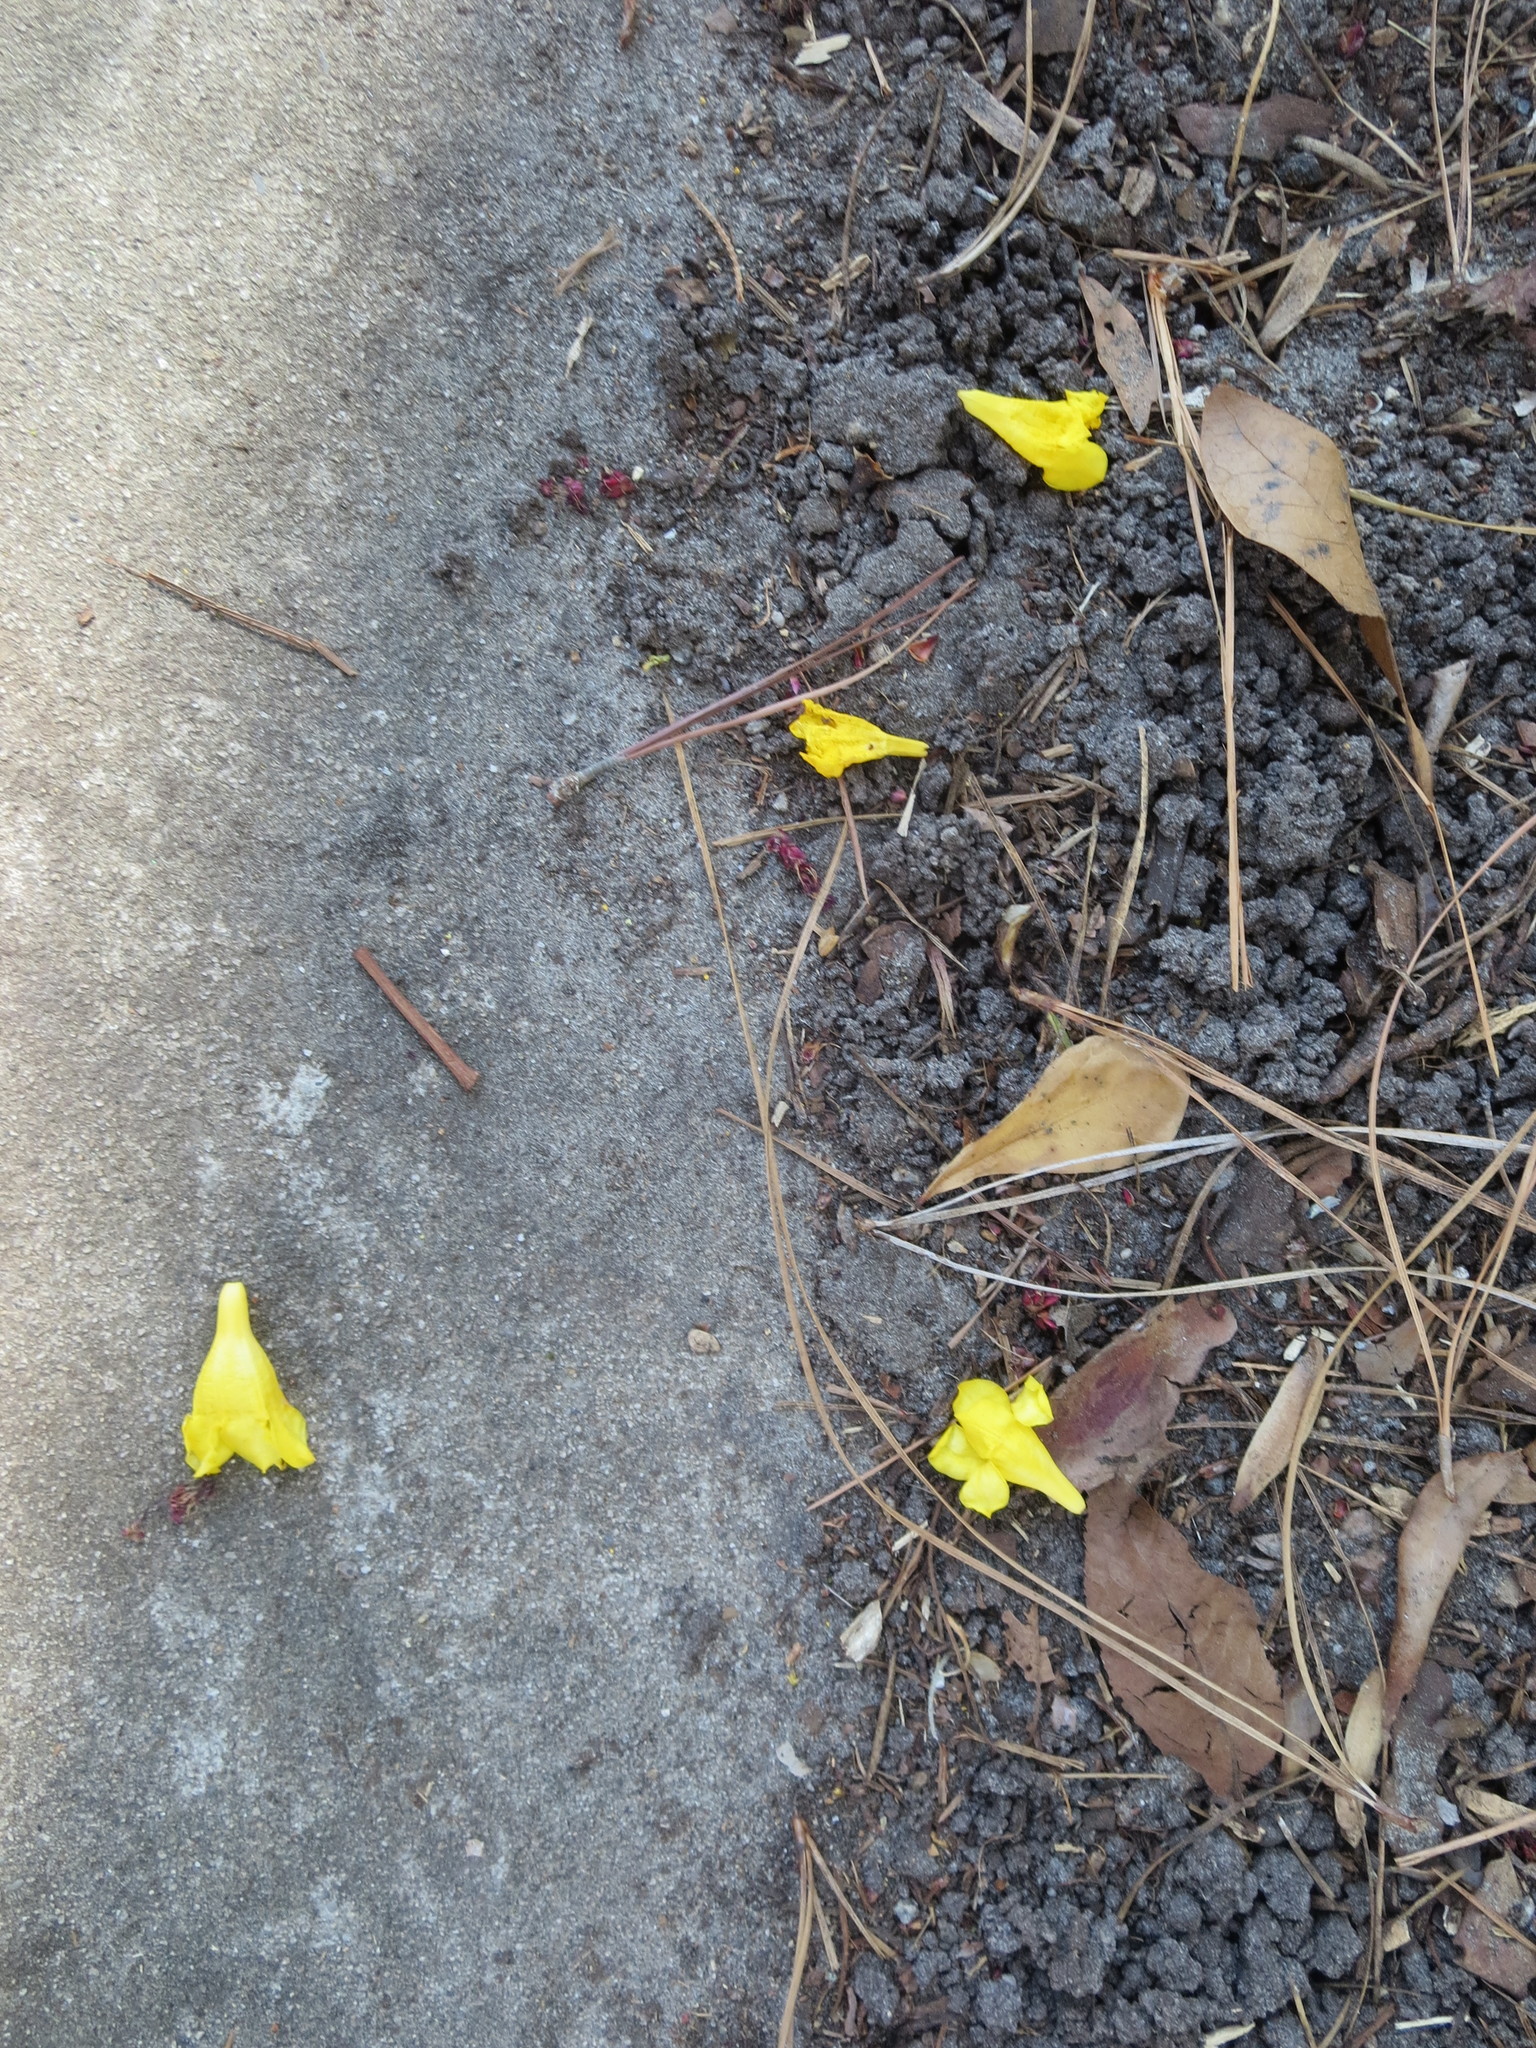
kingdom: Plantae
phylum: Tracheophyta
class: Magnoliopsida
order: Gentianales
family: Gelsemiaceae
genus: Gelsemium
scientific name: Gelsemium sempervirens
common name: Carolina-jasmine
